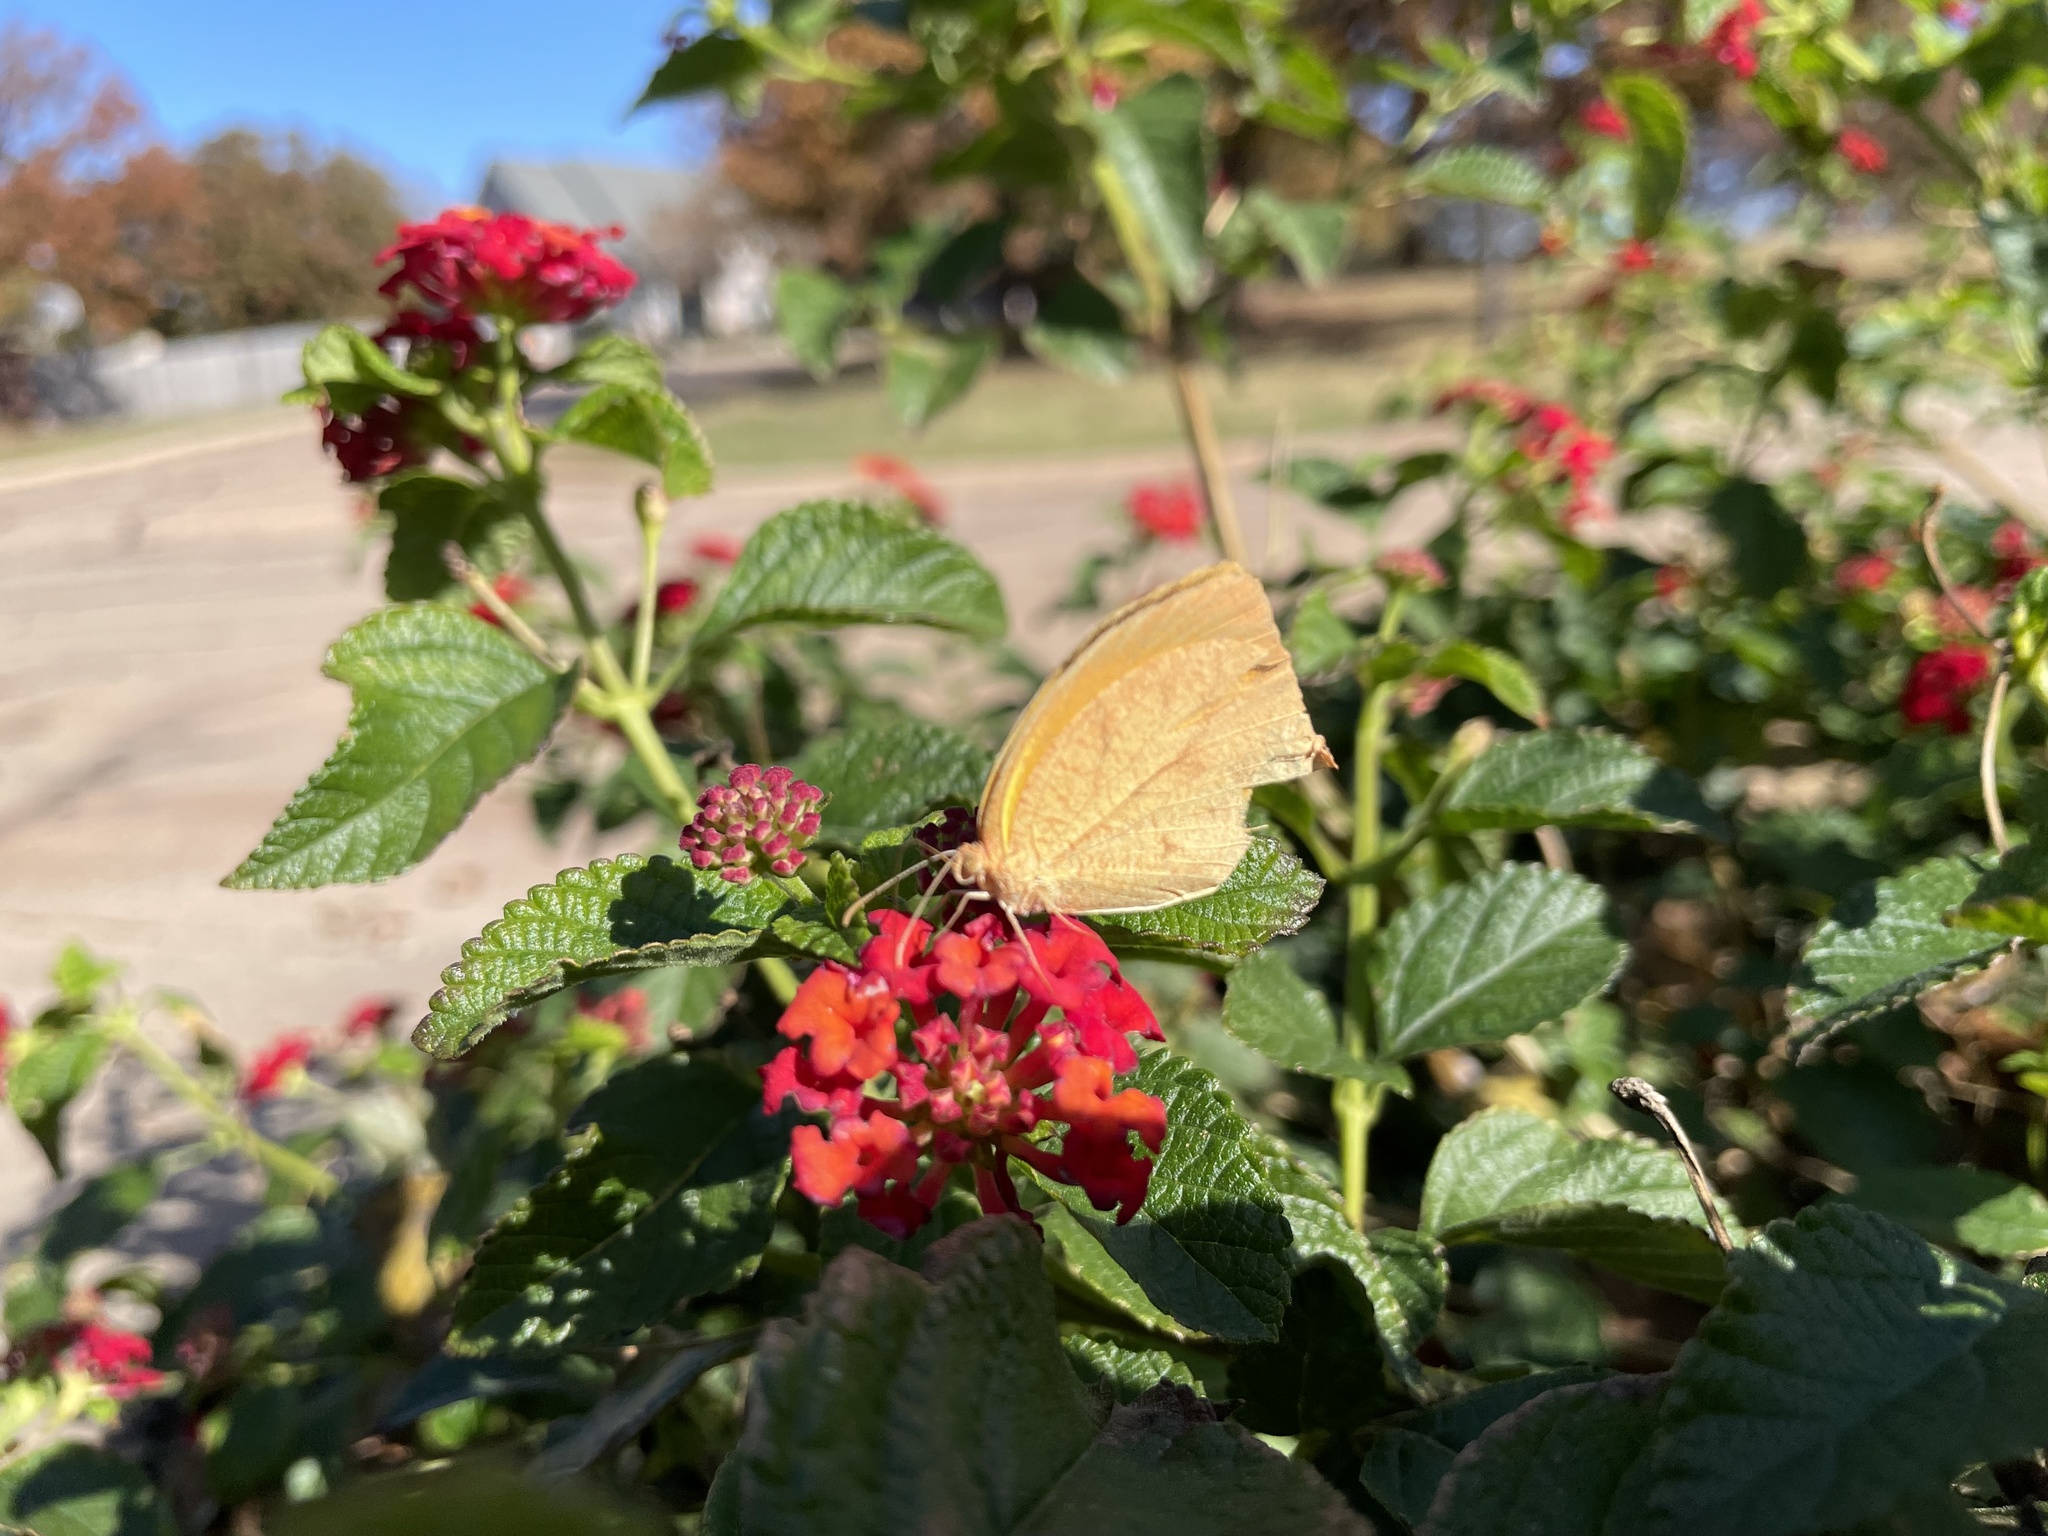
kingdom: Animalia
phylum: Arthropoda
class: Insecta
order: Lepidoptera
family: Pieridae
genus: Pyrisitia
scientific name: Pyrisitia proterpia
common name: Tailed orange
